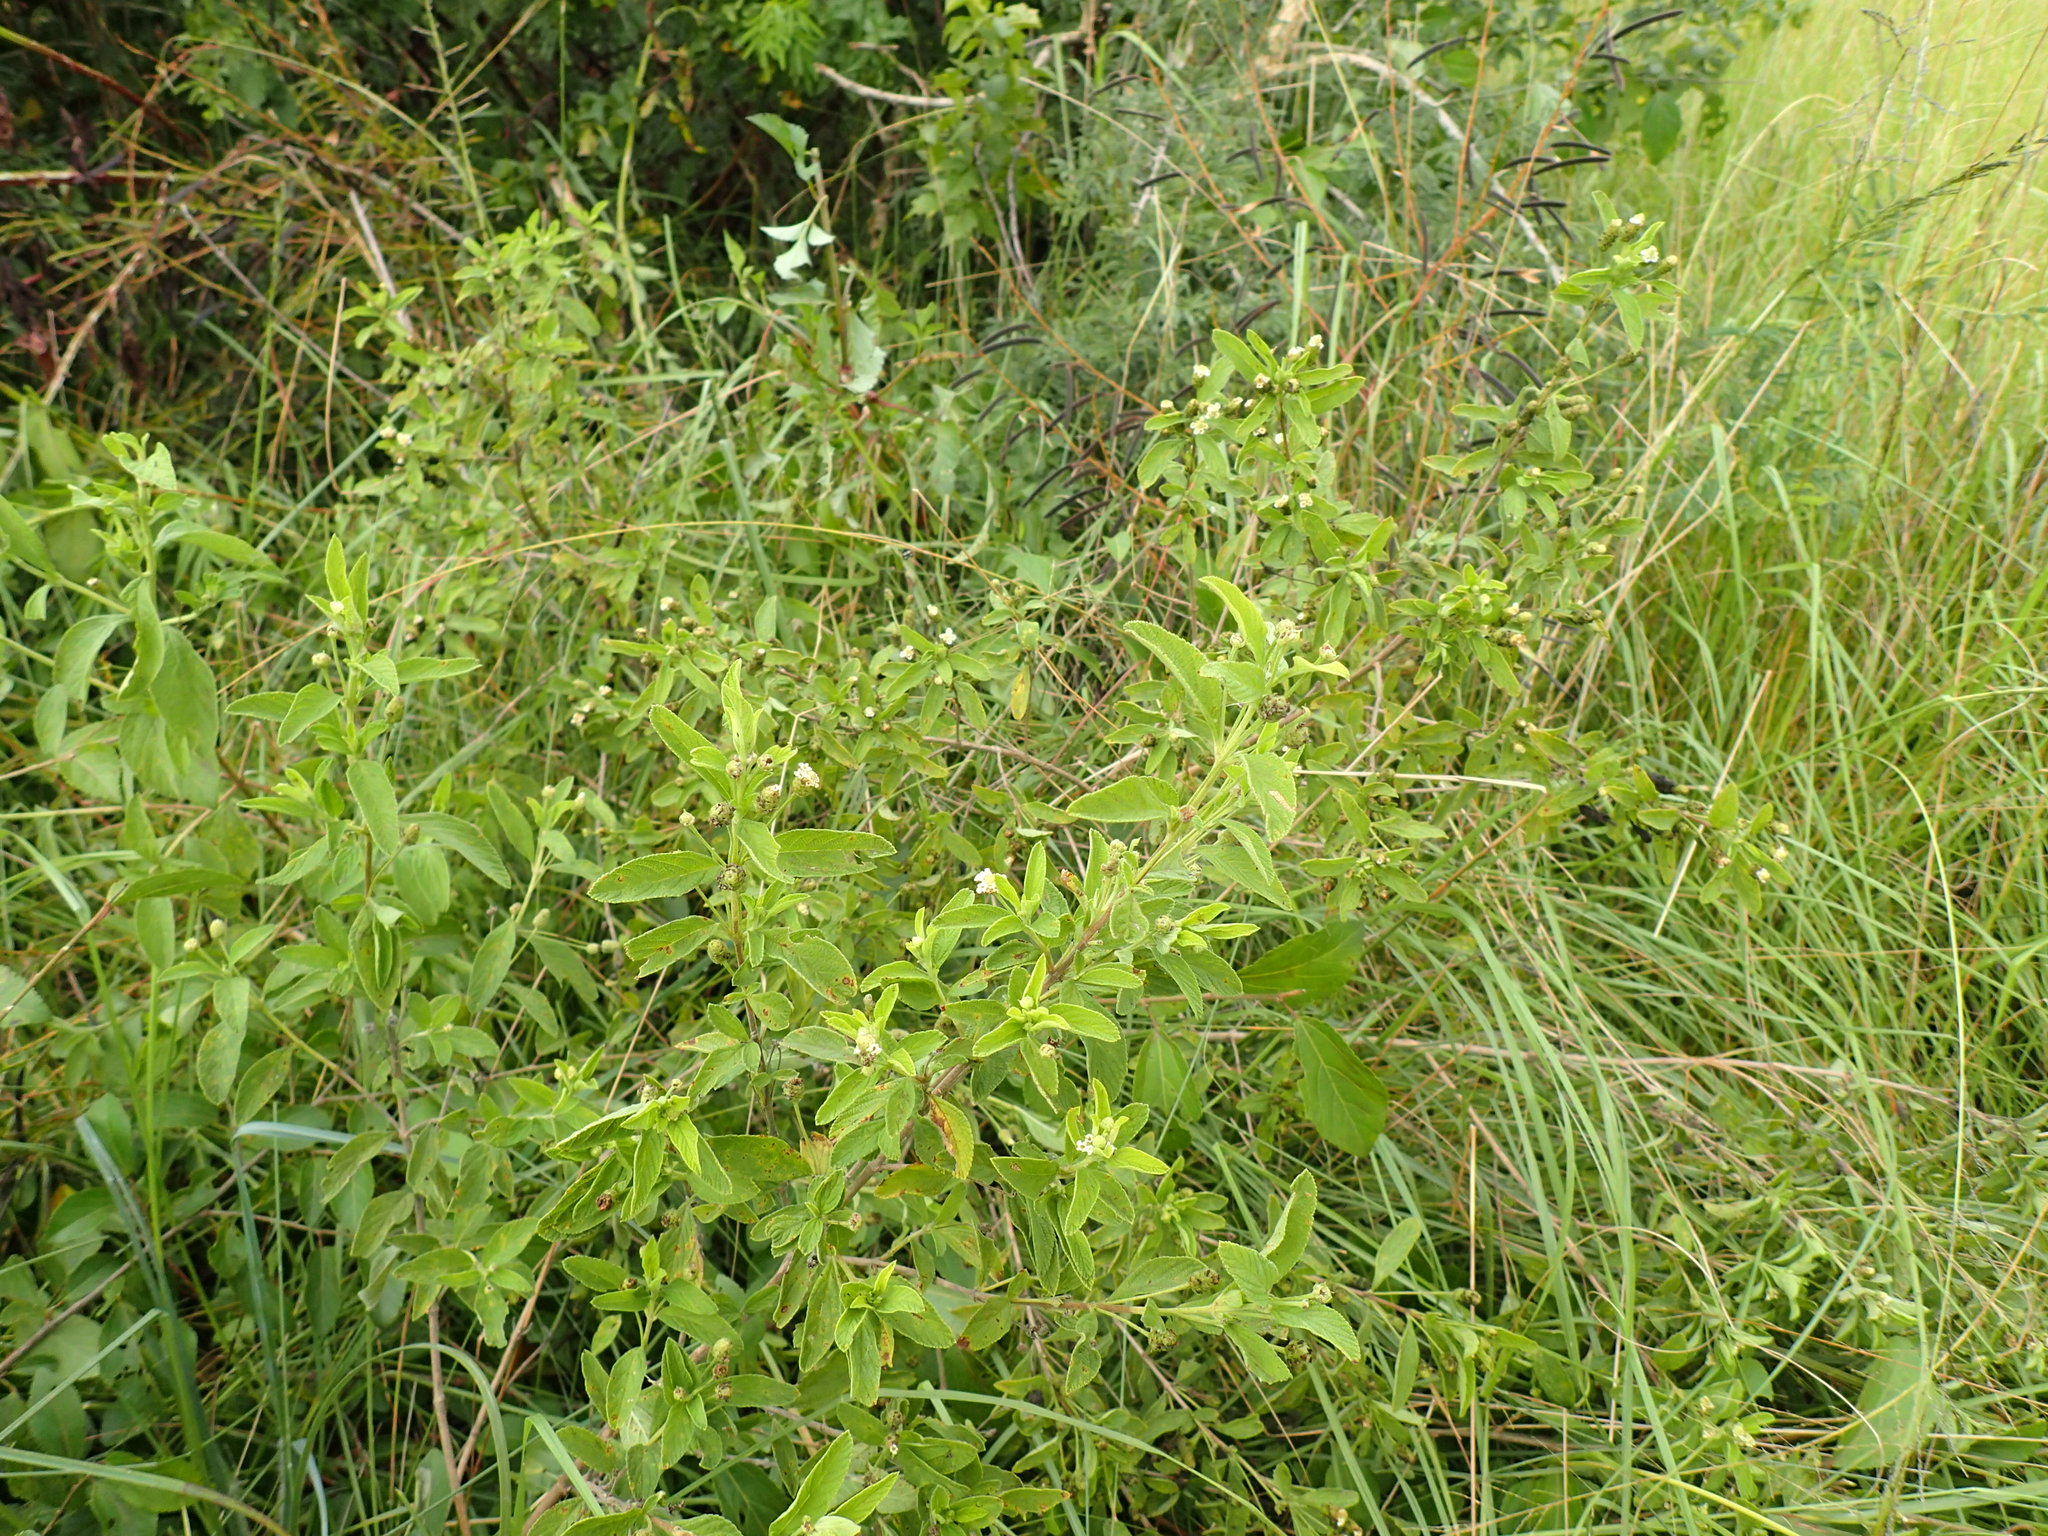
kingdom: Plantae
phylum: Tracheophyta
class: Magnoliopsida
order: Lamiales
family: Verbenaceae
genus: Lippia
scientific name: Lippia javanica
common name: Lemonbush
